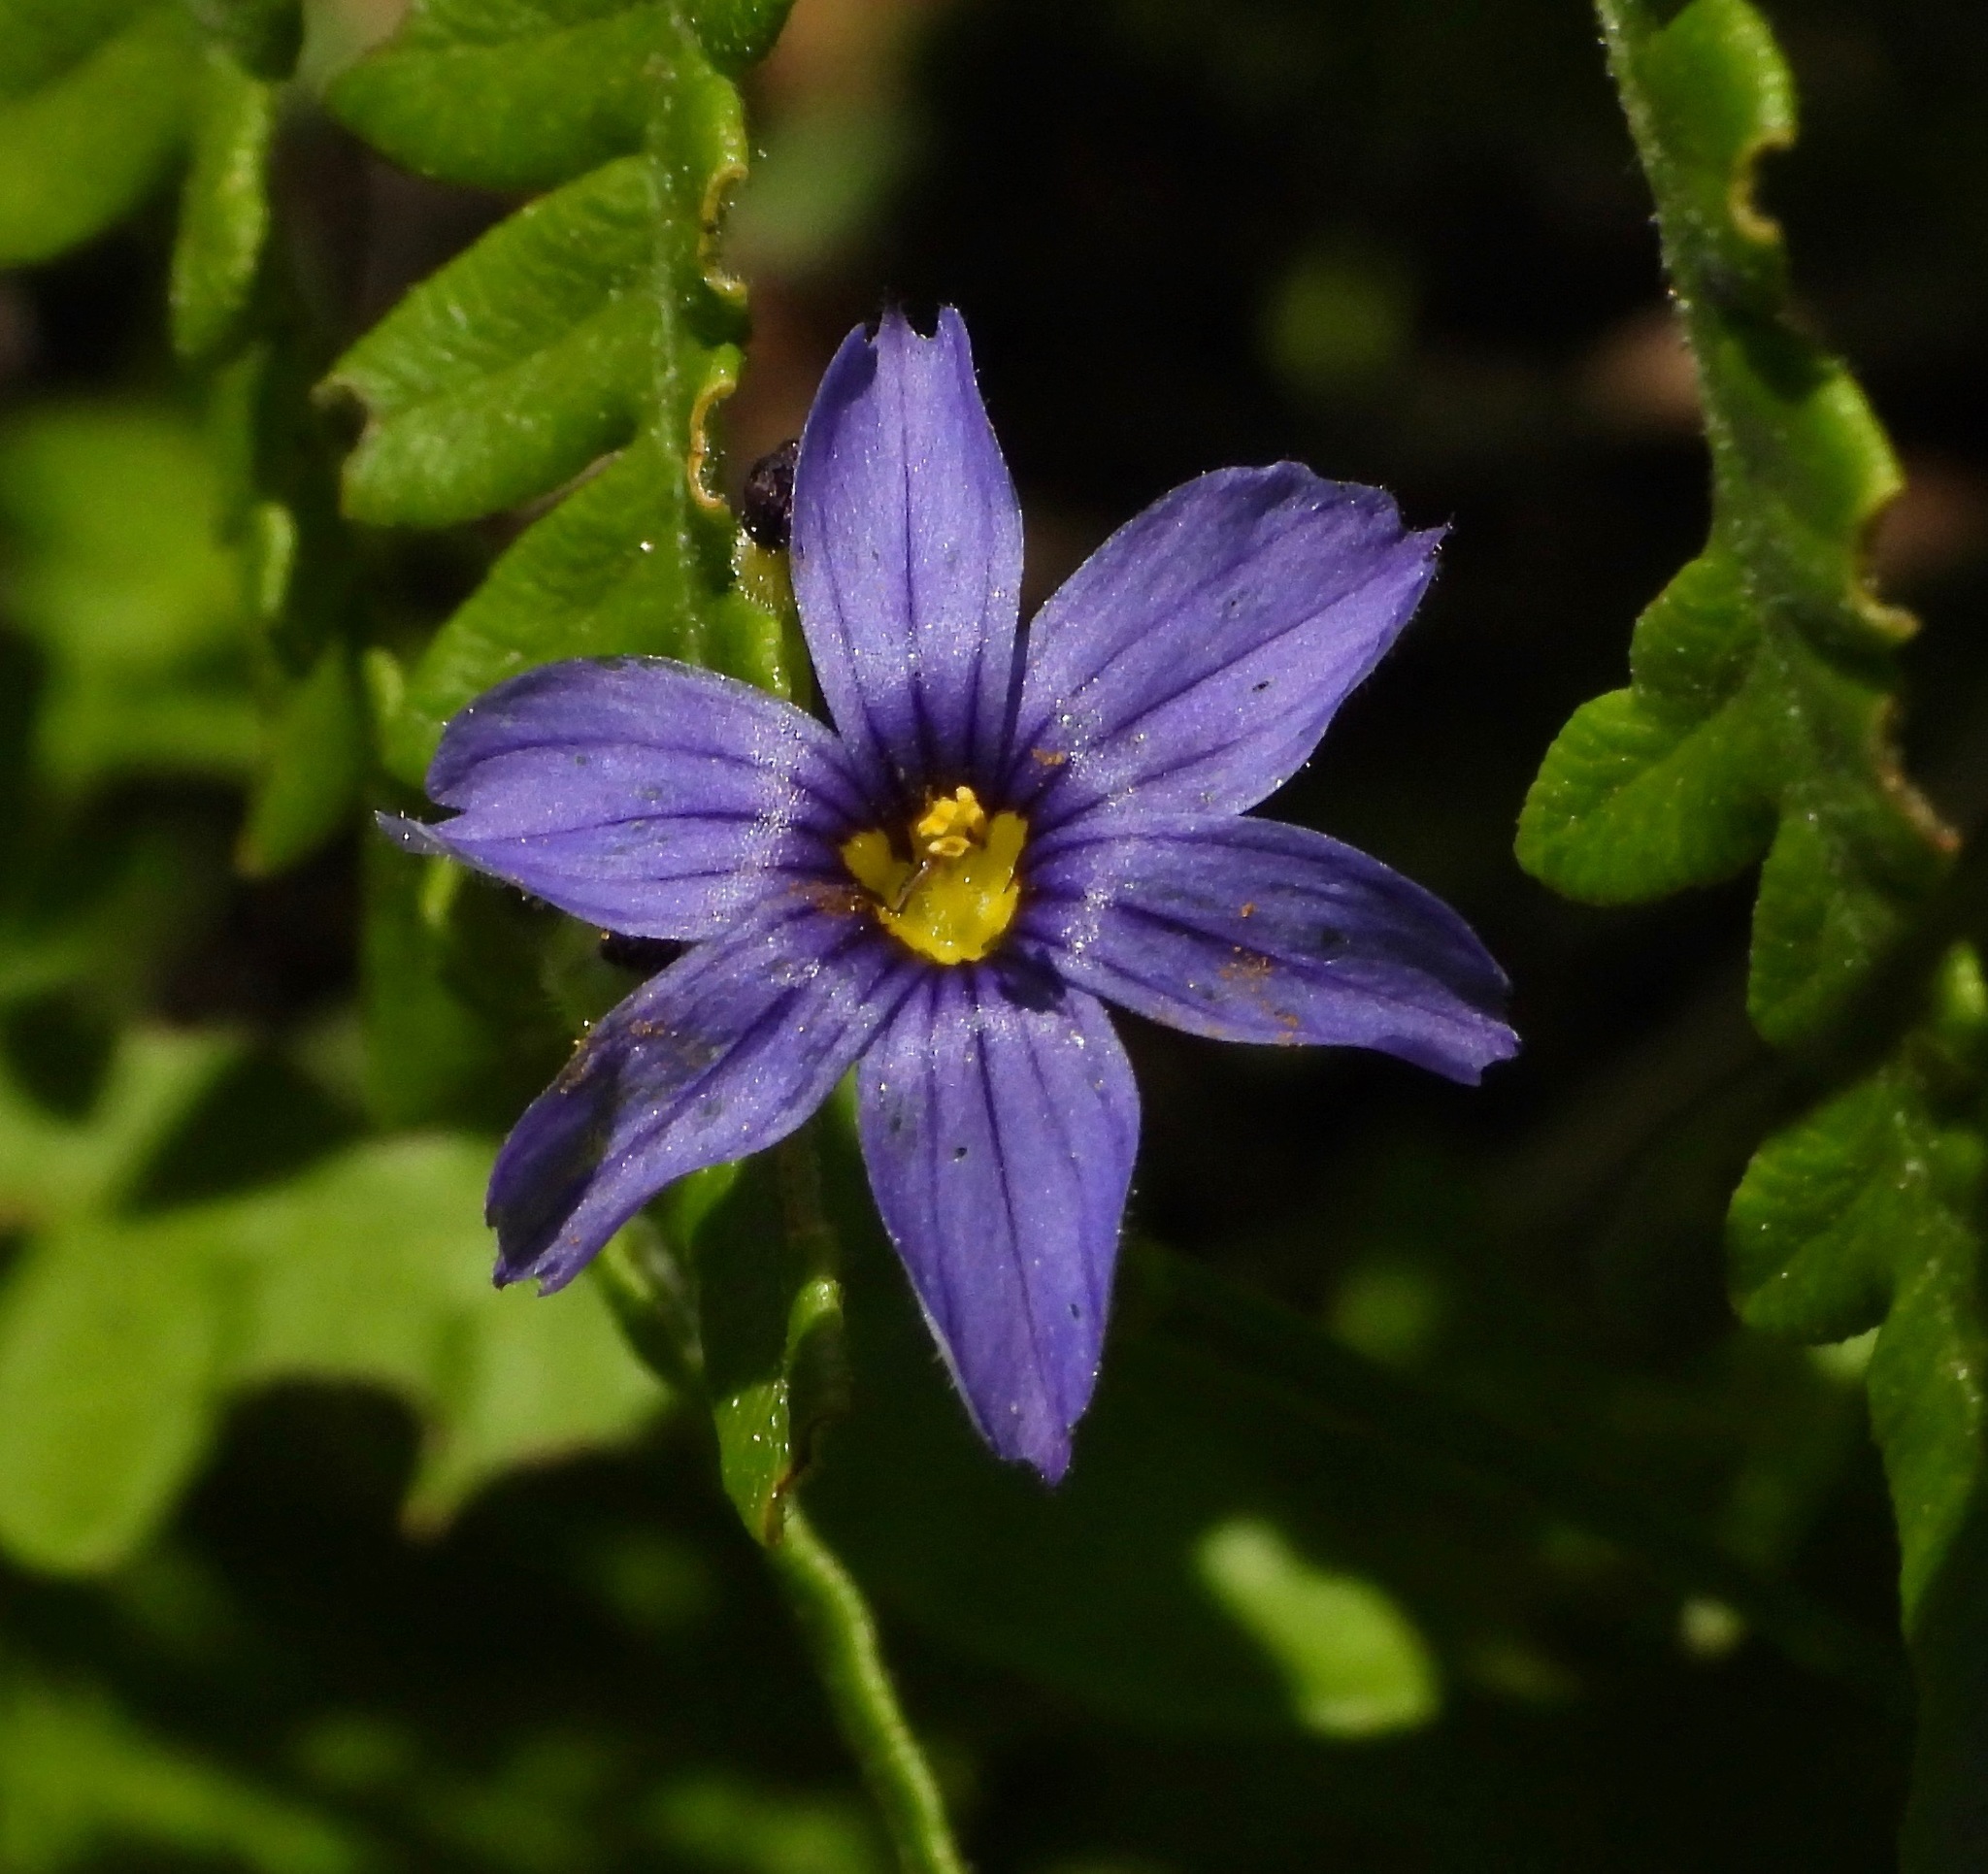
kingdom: Plantae
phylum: Tracheophyta
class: Liliopsida
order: Asparagales
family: Iridaceae
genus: Sisyrinchium
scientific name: Sisyrinchium idahoense
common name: Idaho blue-eyed-grass
